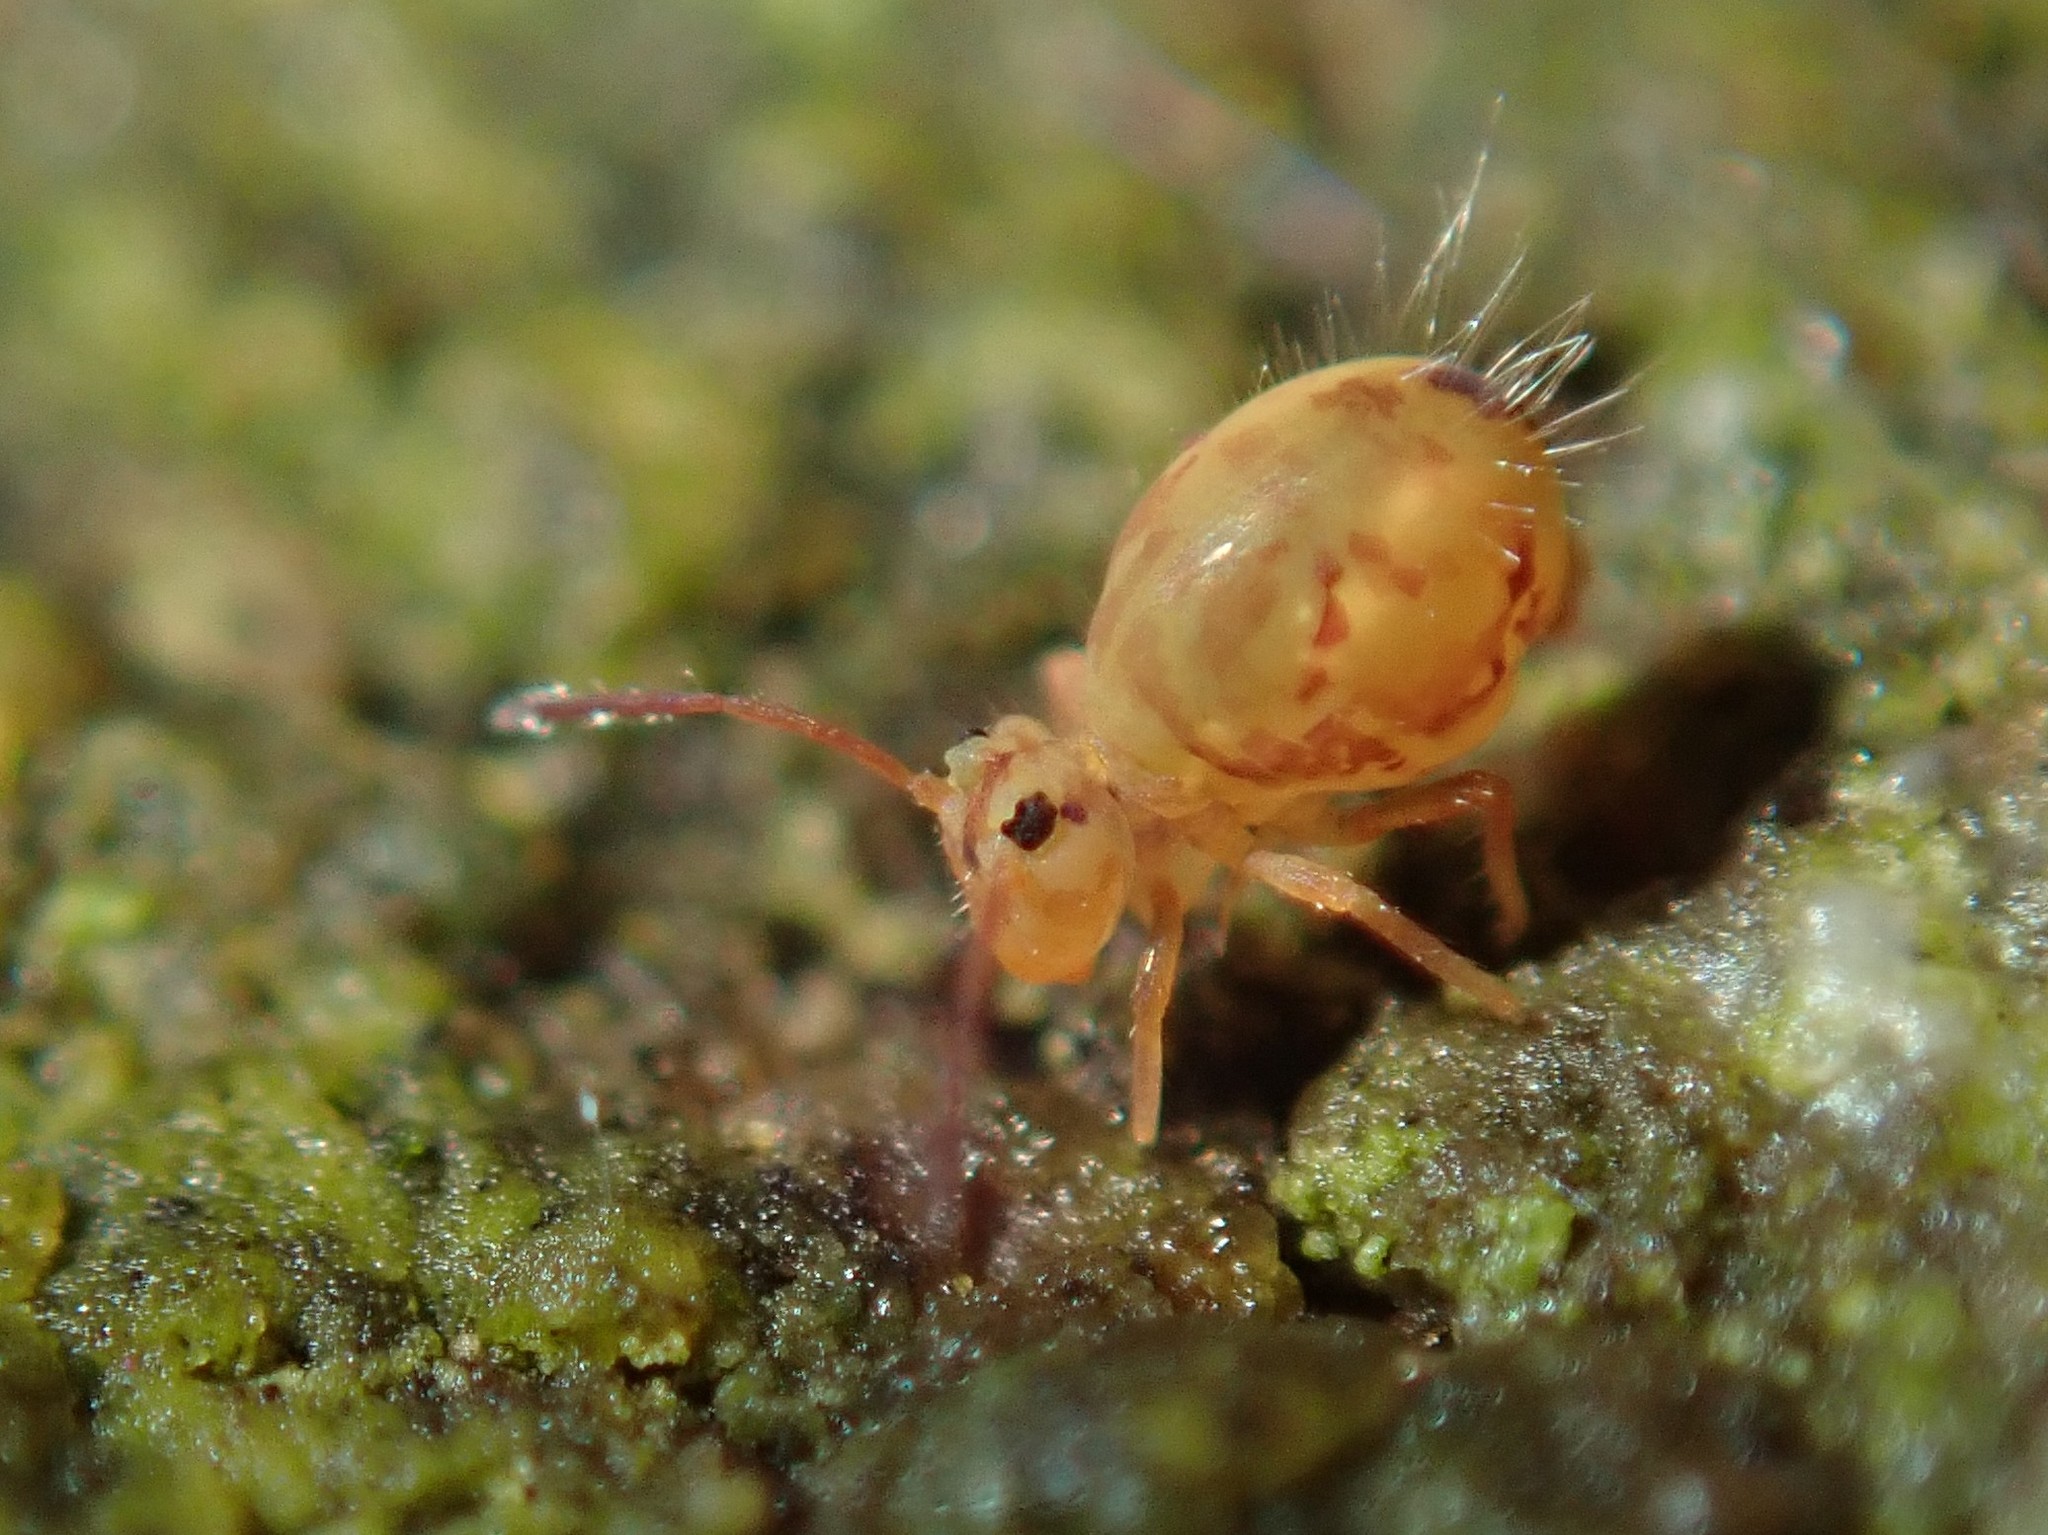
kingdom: Animalia
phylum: Arthropoda
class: Collembola
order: Symphypleona
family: Dicyrtomidae
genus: Dicyrtomina
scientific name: Dicyrtomina ornata
